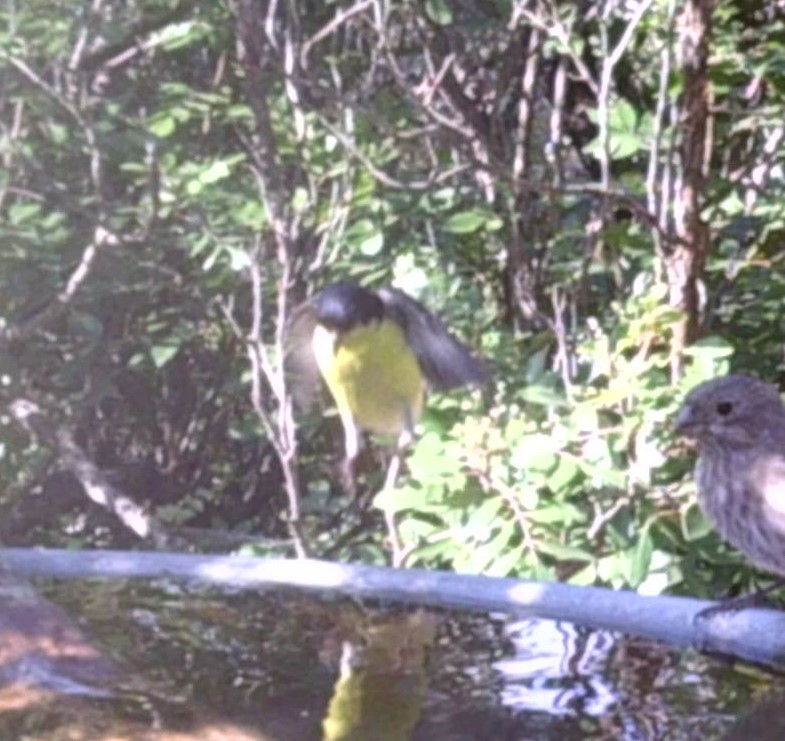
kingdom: Animalia
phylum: Chordata
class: Aves
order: Passeriformes
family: Fringillidae
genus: Spinus
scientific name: Spinus psaltria
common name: Lesser goldfinch
